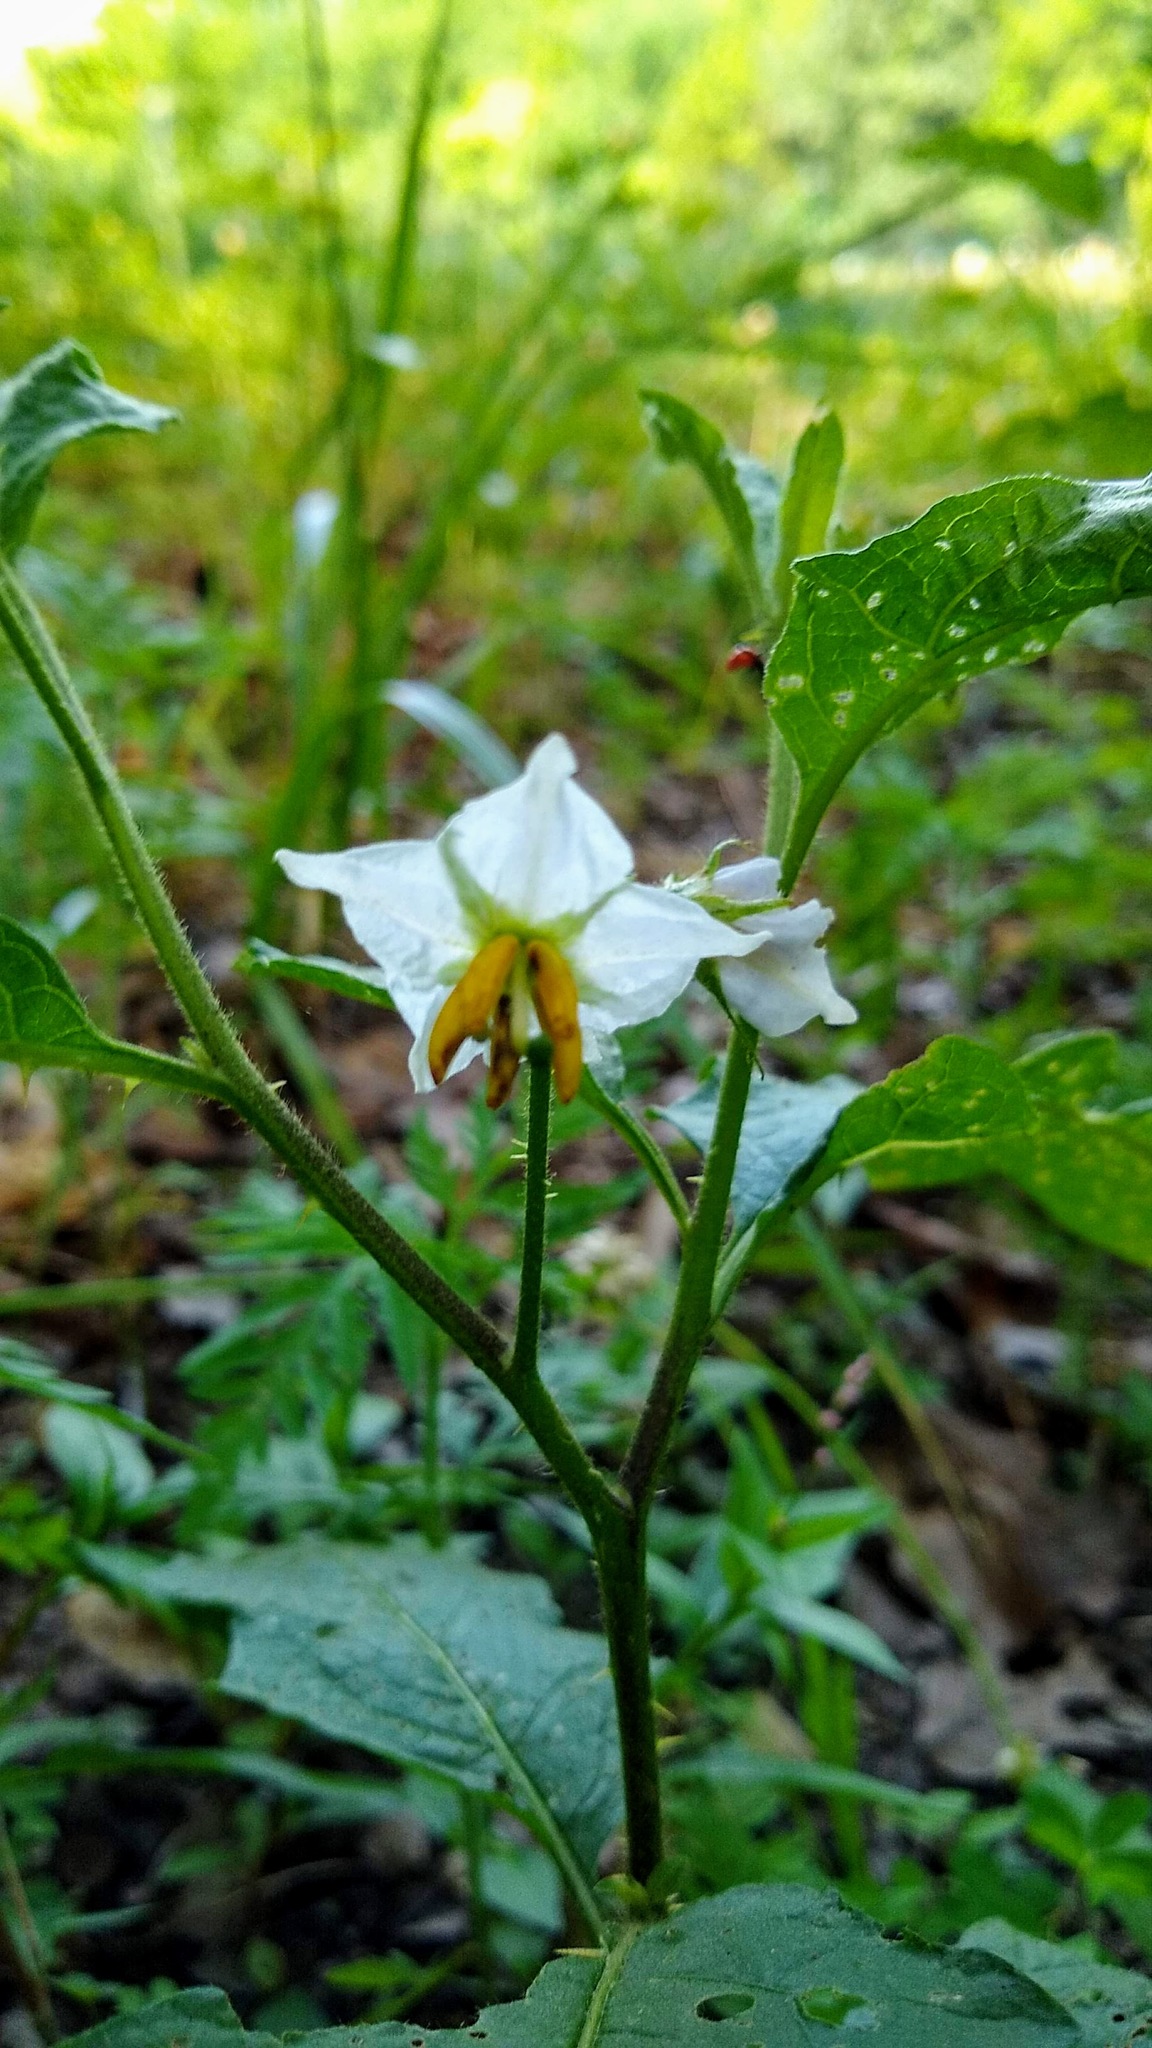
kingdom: Plantae
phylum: Tracheophyta
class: Magnoliopsida
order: Solanales
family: Solanaceae
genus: Solanum
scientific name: Solanum carolinense
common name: Horse-nettle
